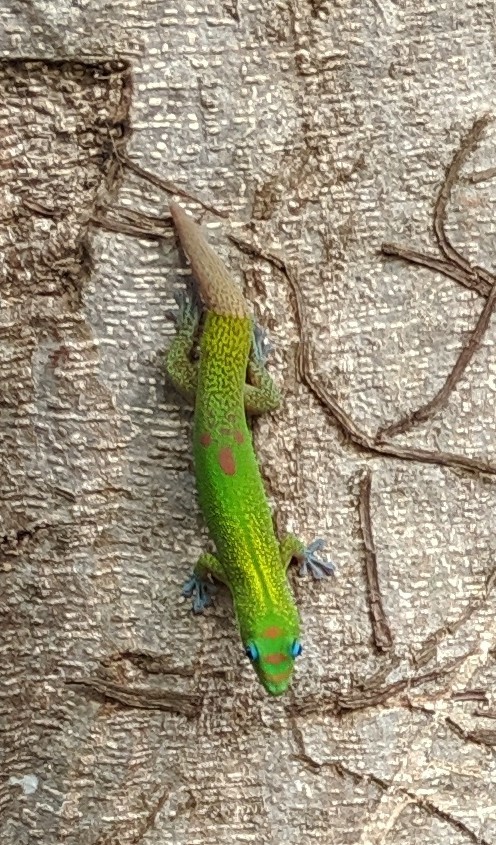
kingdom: Animalia
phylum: Chordata
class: Squamata
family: Gekkonidae
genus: Phelsuma
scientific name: Phelsuma laticauda
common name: Gold dust day gecko
